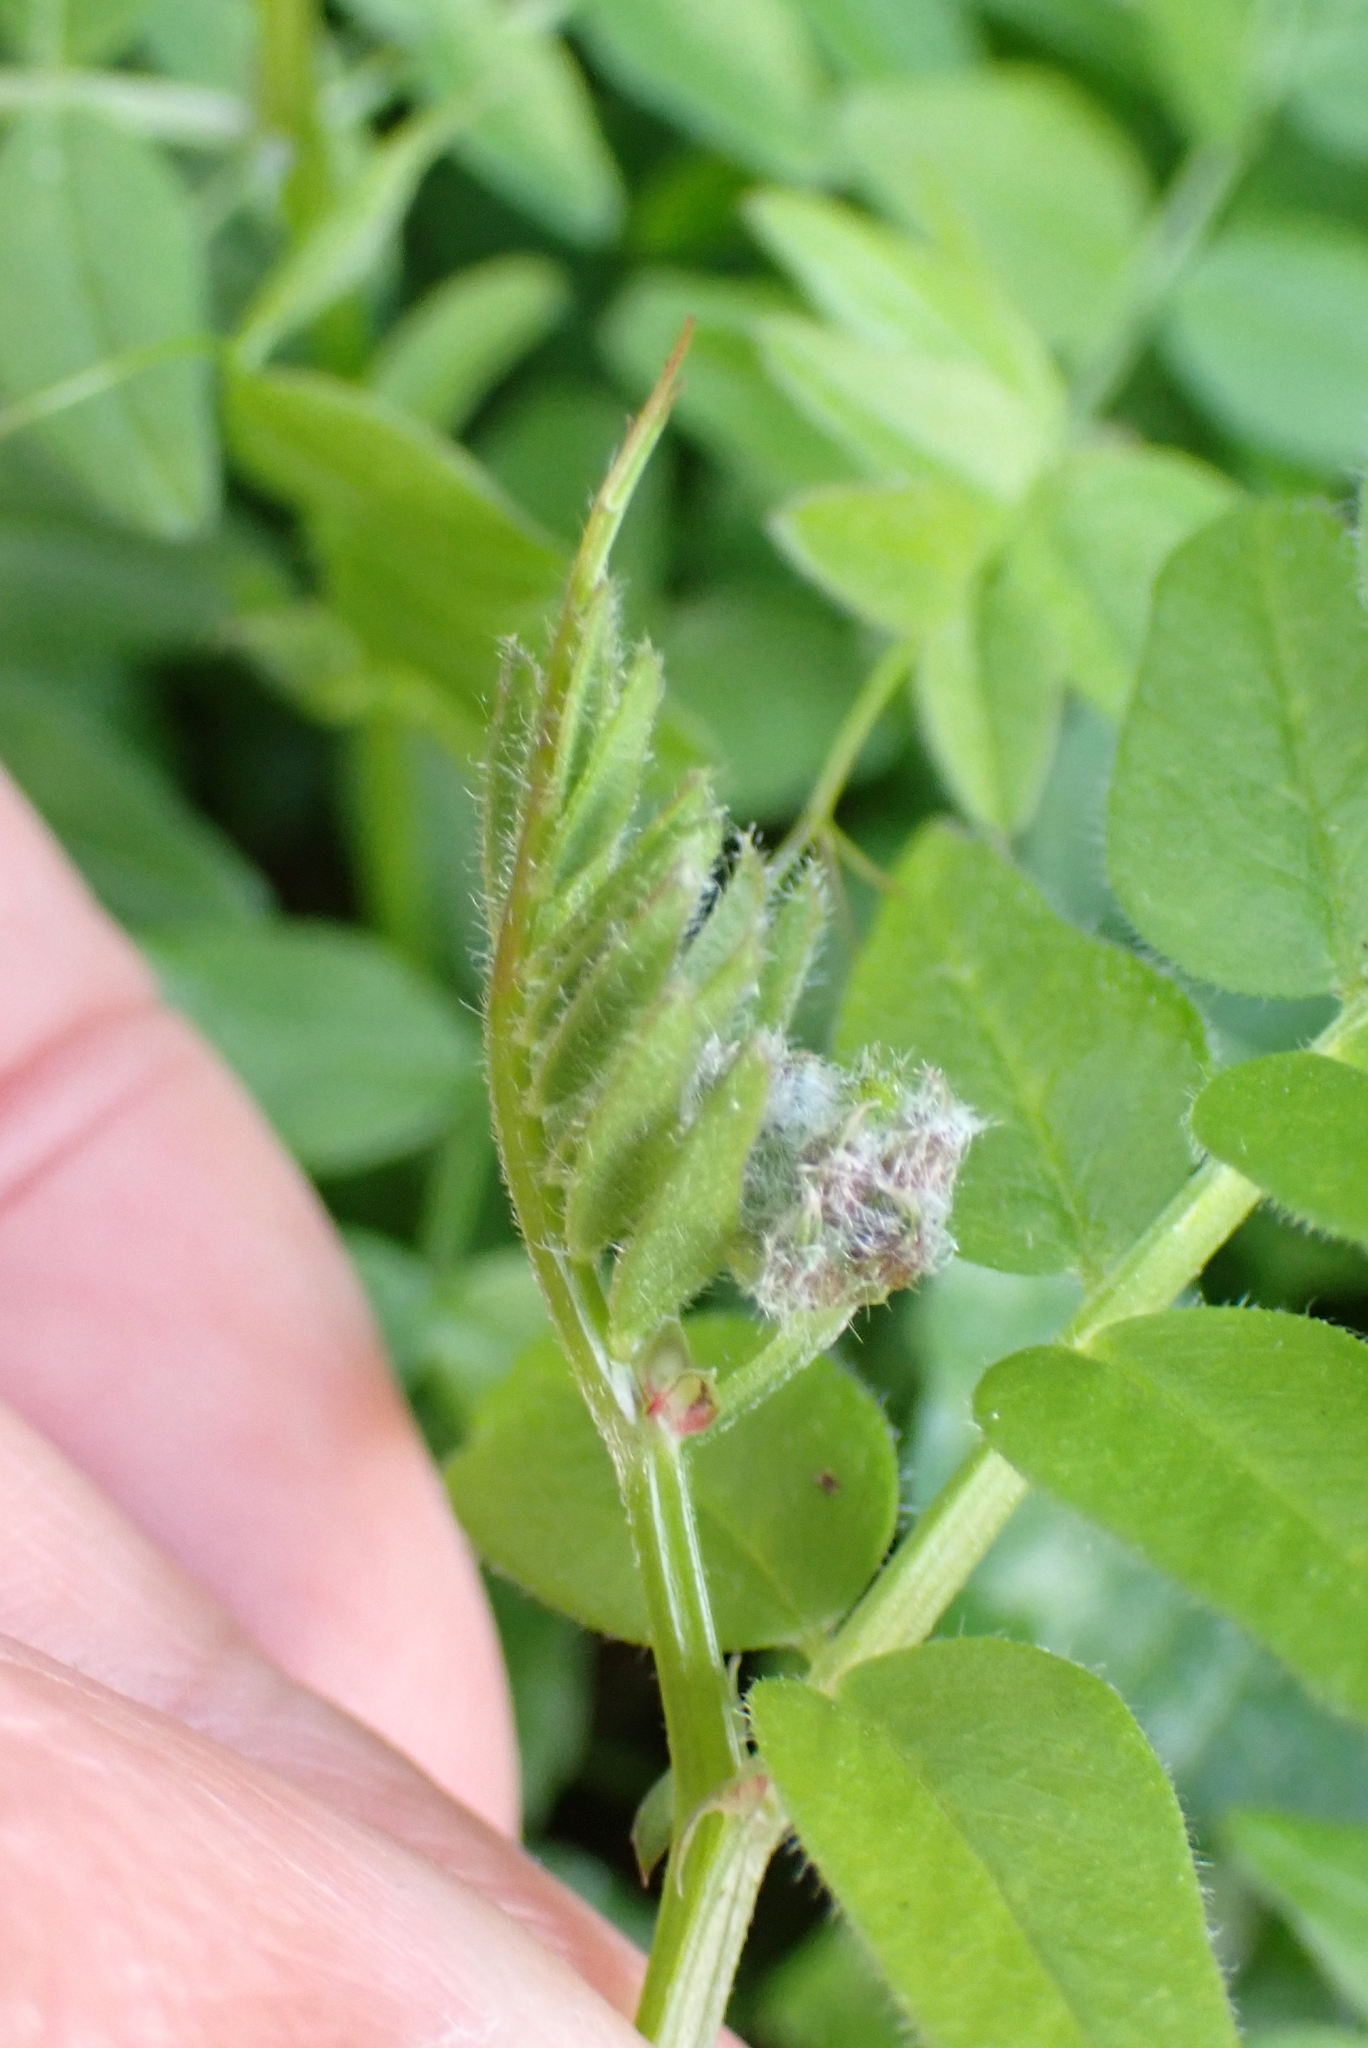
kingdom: Plantae
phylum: Tracheophyta
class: Magnoliopsida
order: Fabales
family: Fabaceae
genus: Vicia
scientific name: Vicia sepium
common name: Bush vetch
